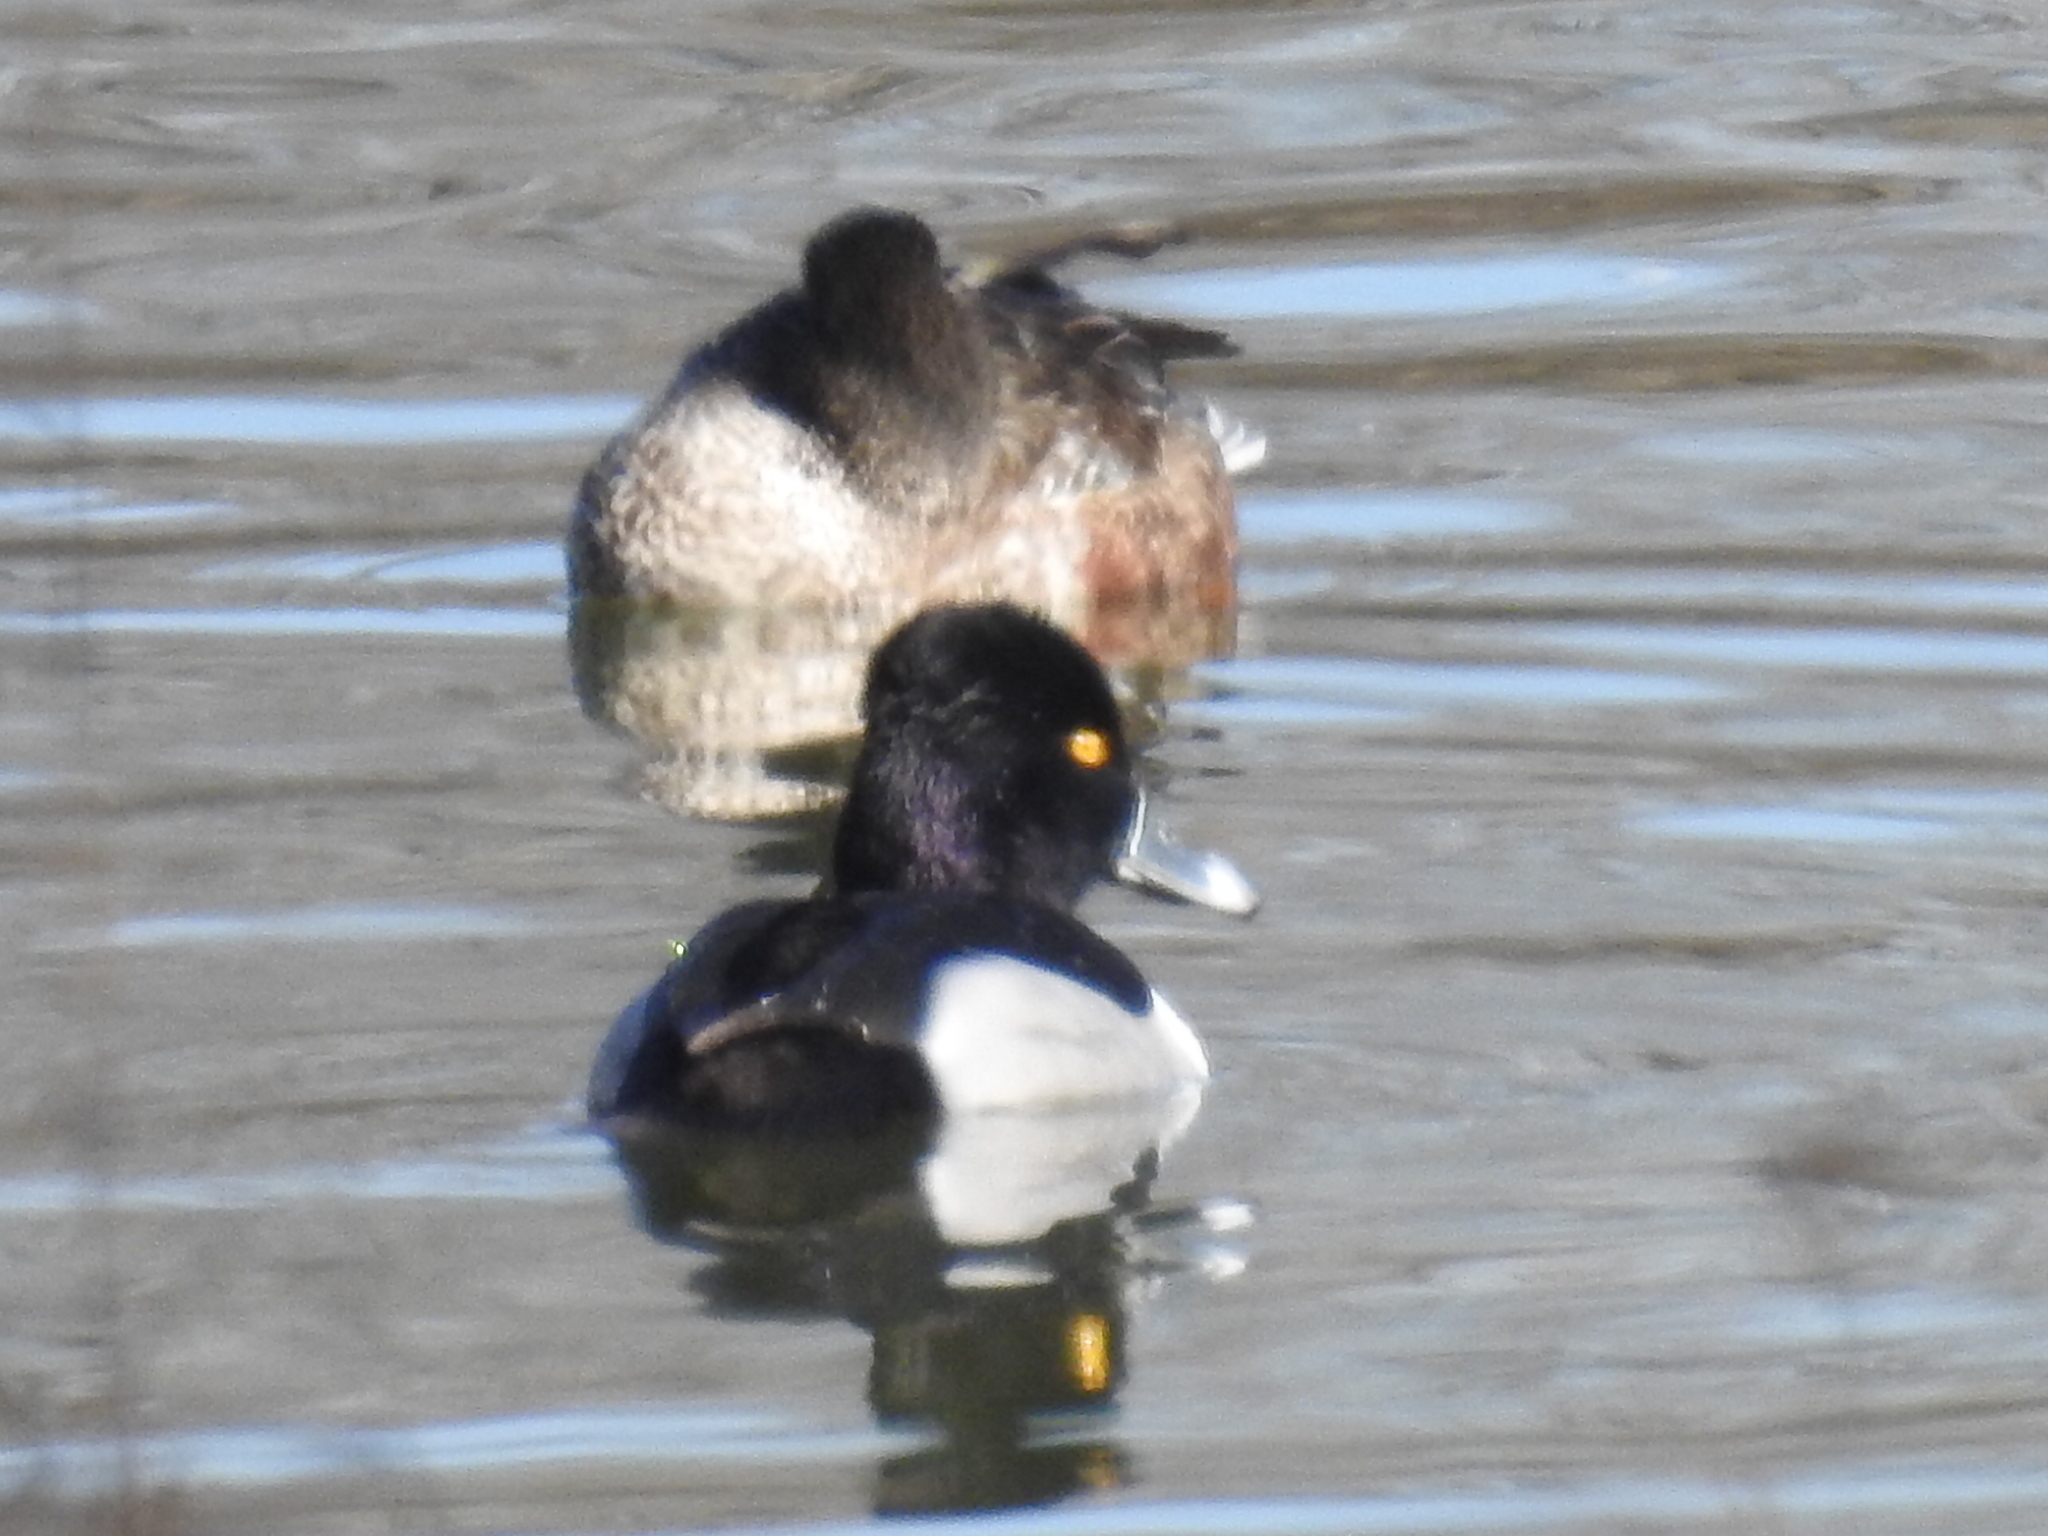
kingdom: Animalia
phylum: Chordata
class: Aves
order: Anseriformes
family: Anatidae
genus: Aythya
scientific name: Aythya collaris
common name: Ring-necked duck
